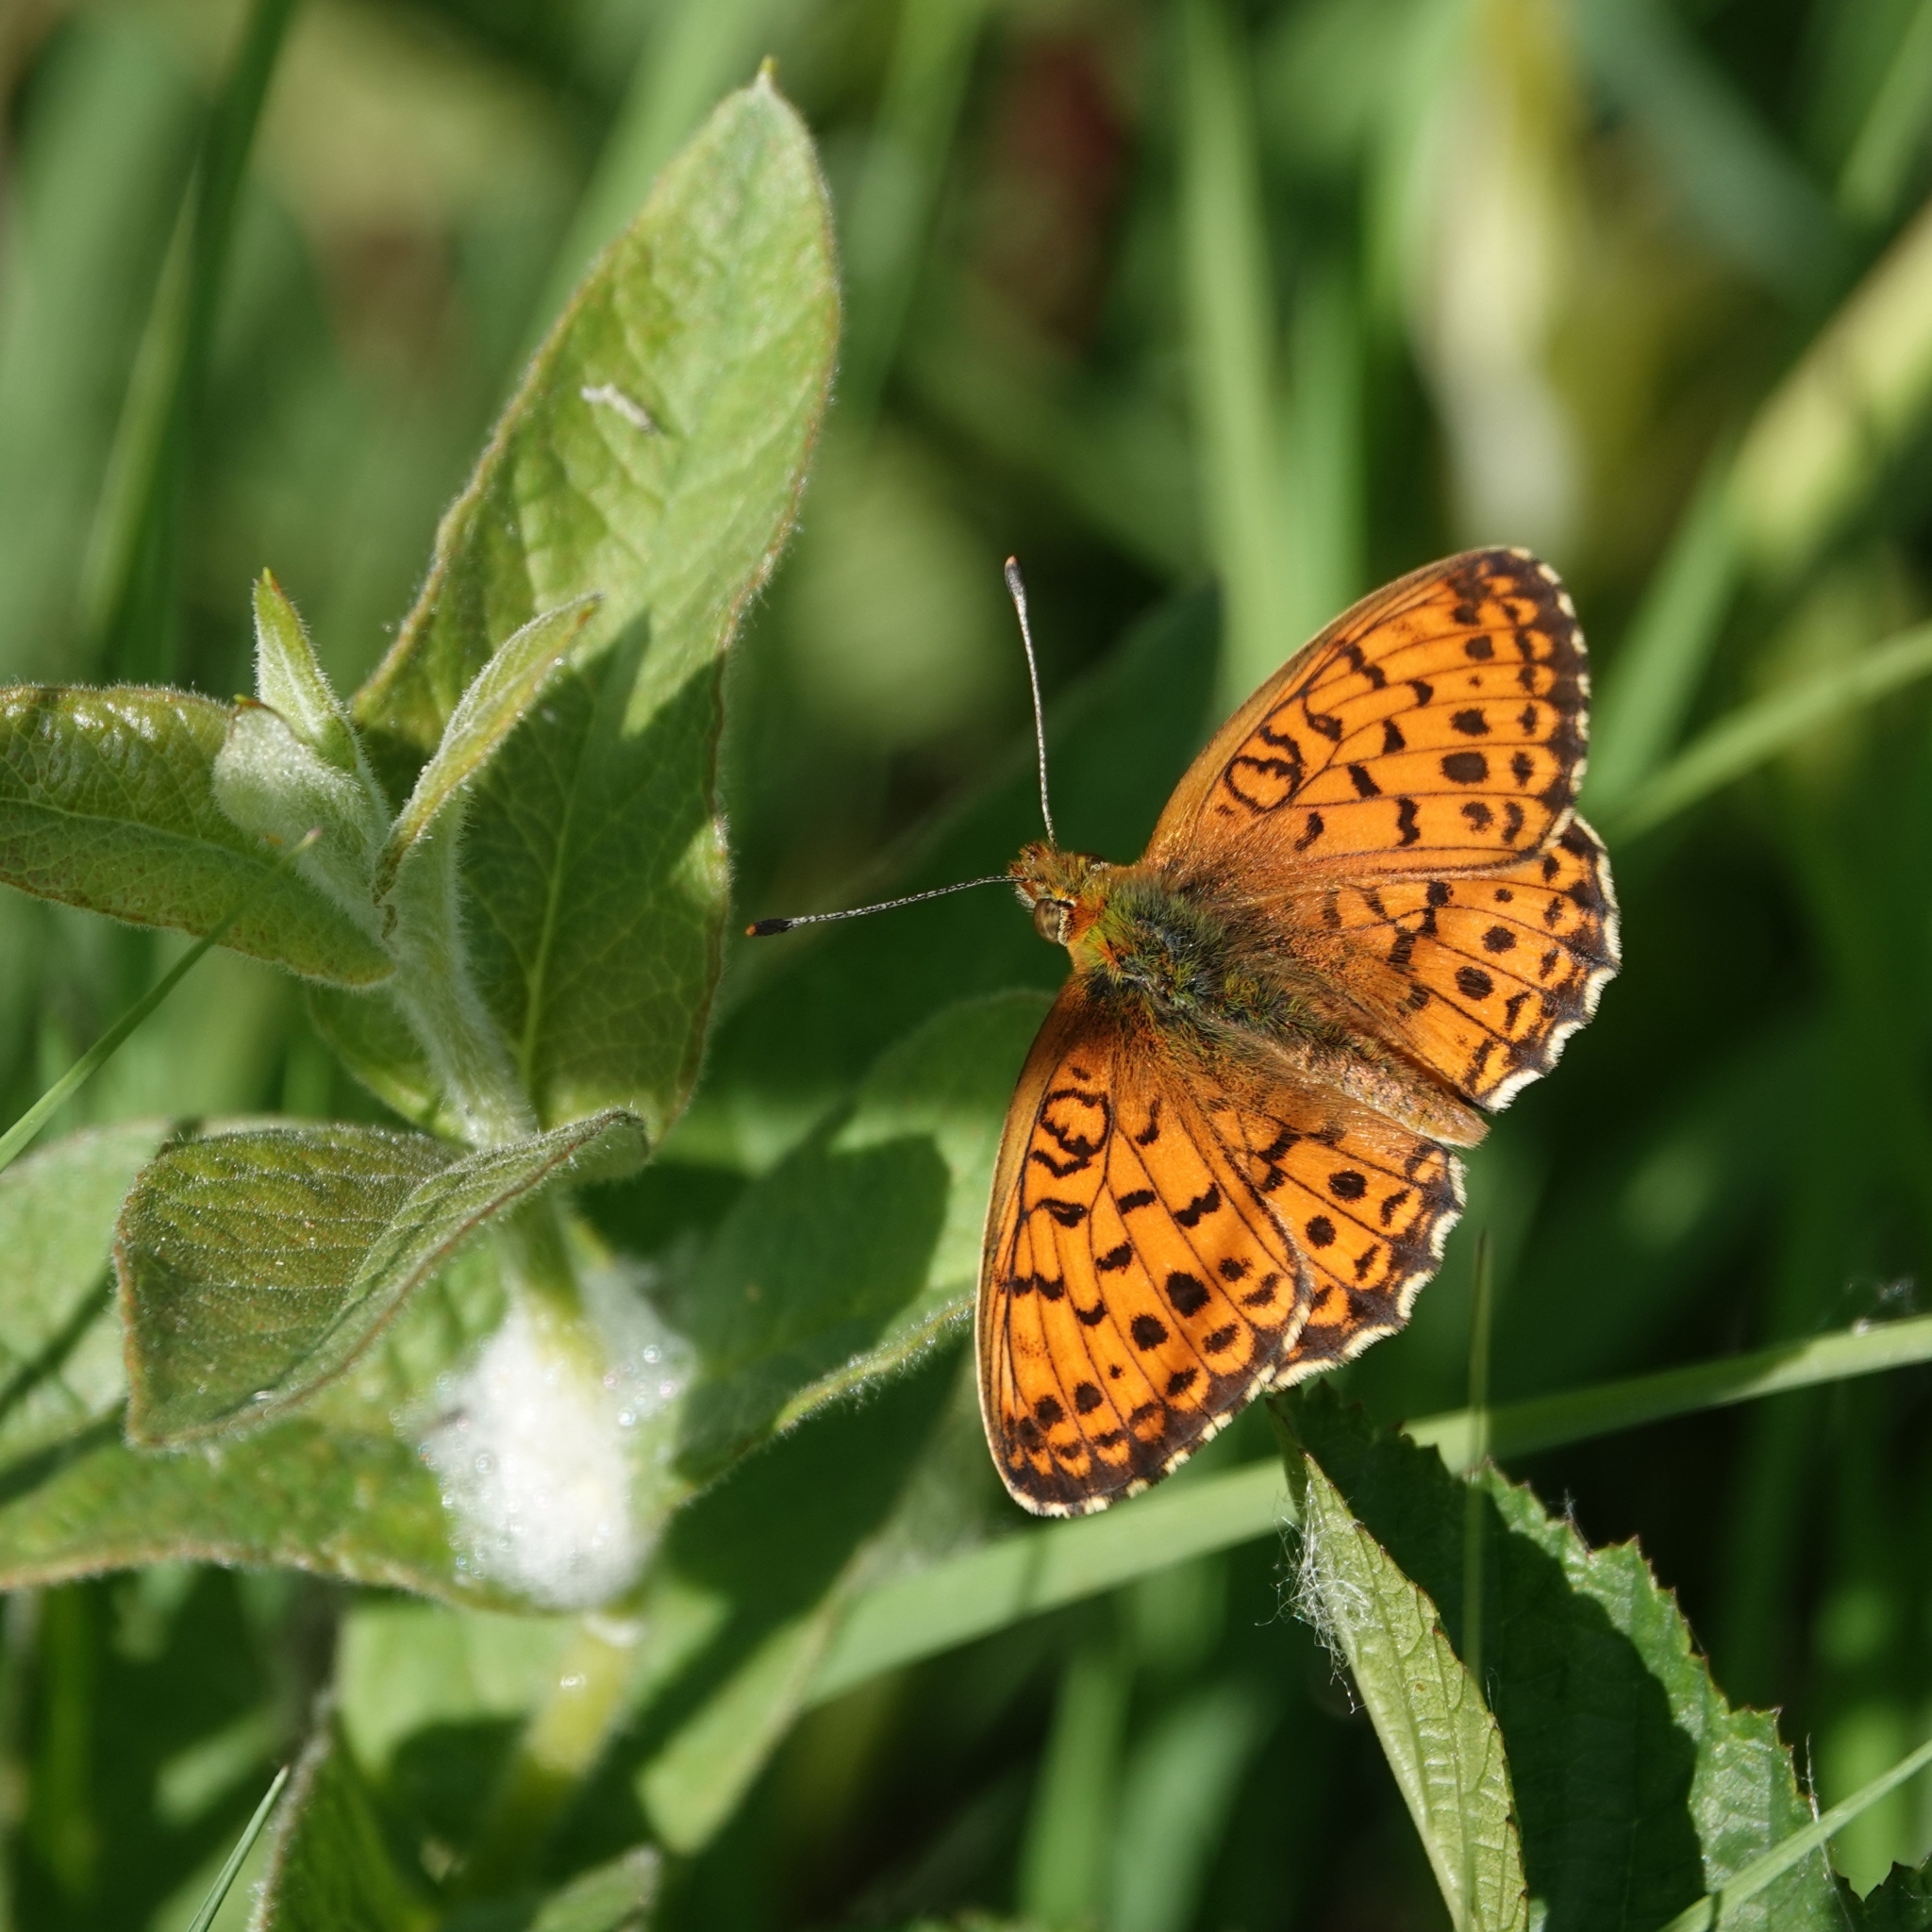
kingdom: Animalia
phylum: Arthropoda
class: Insecta
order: Lepidoptera
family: Nymphalidae
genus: Brenthis
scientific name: Brenthis ino
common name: Lesser marbled fritillary
